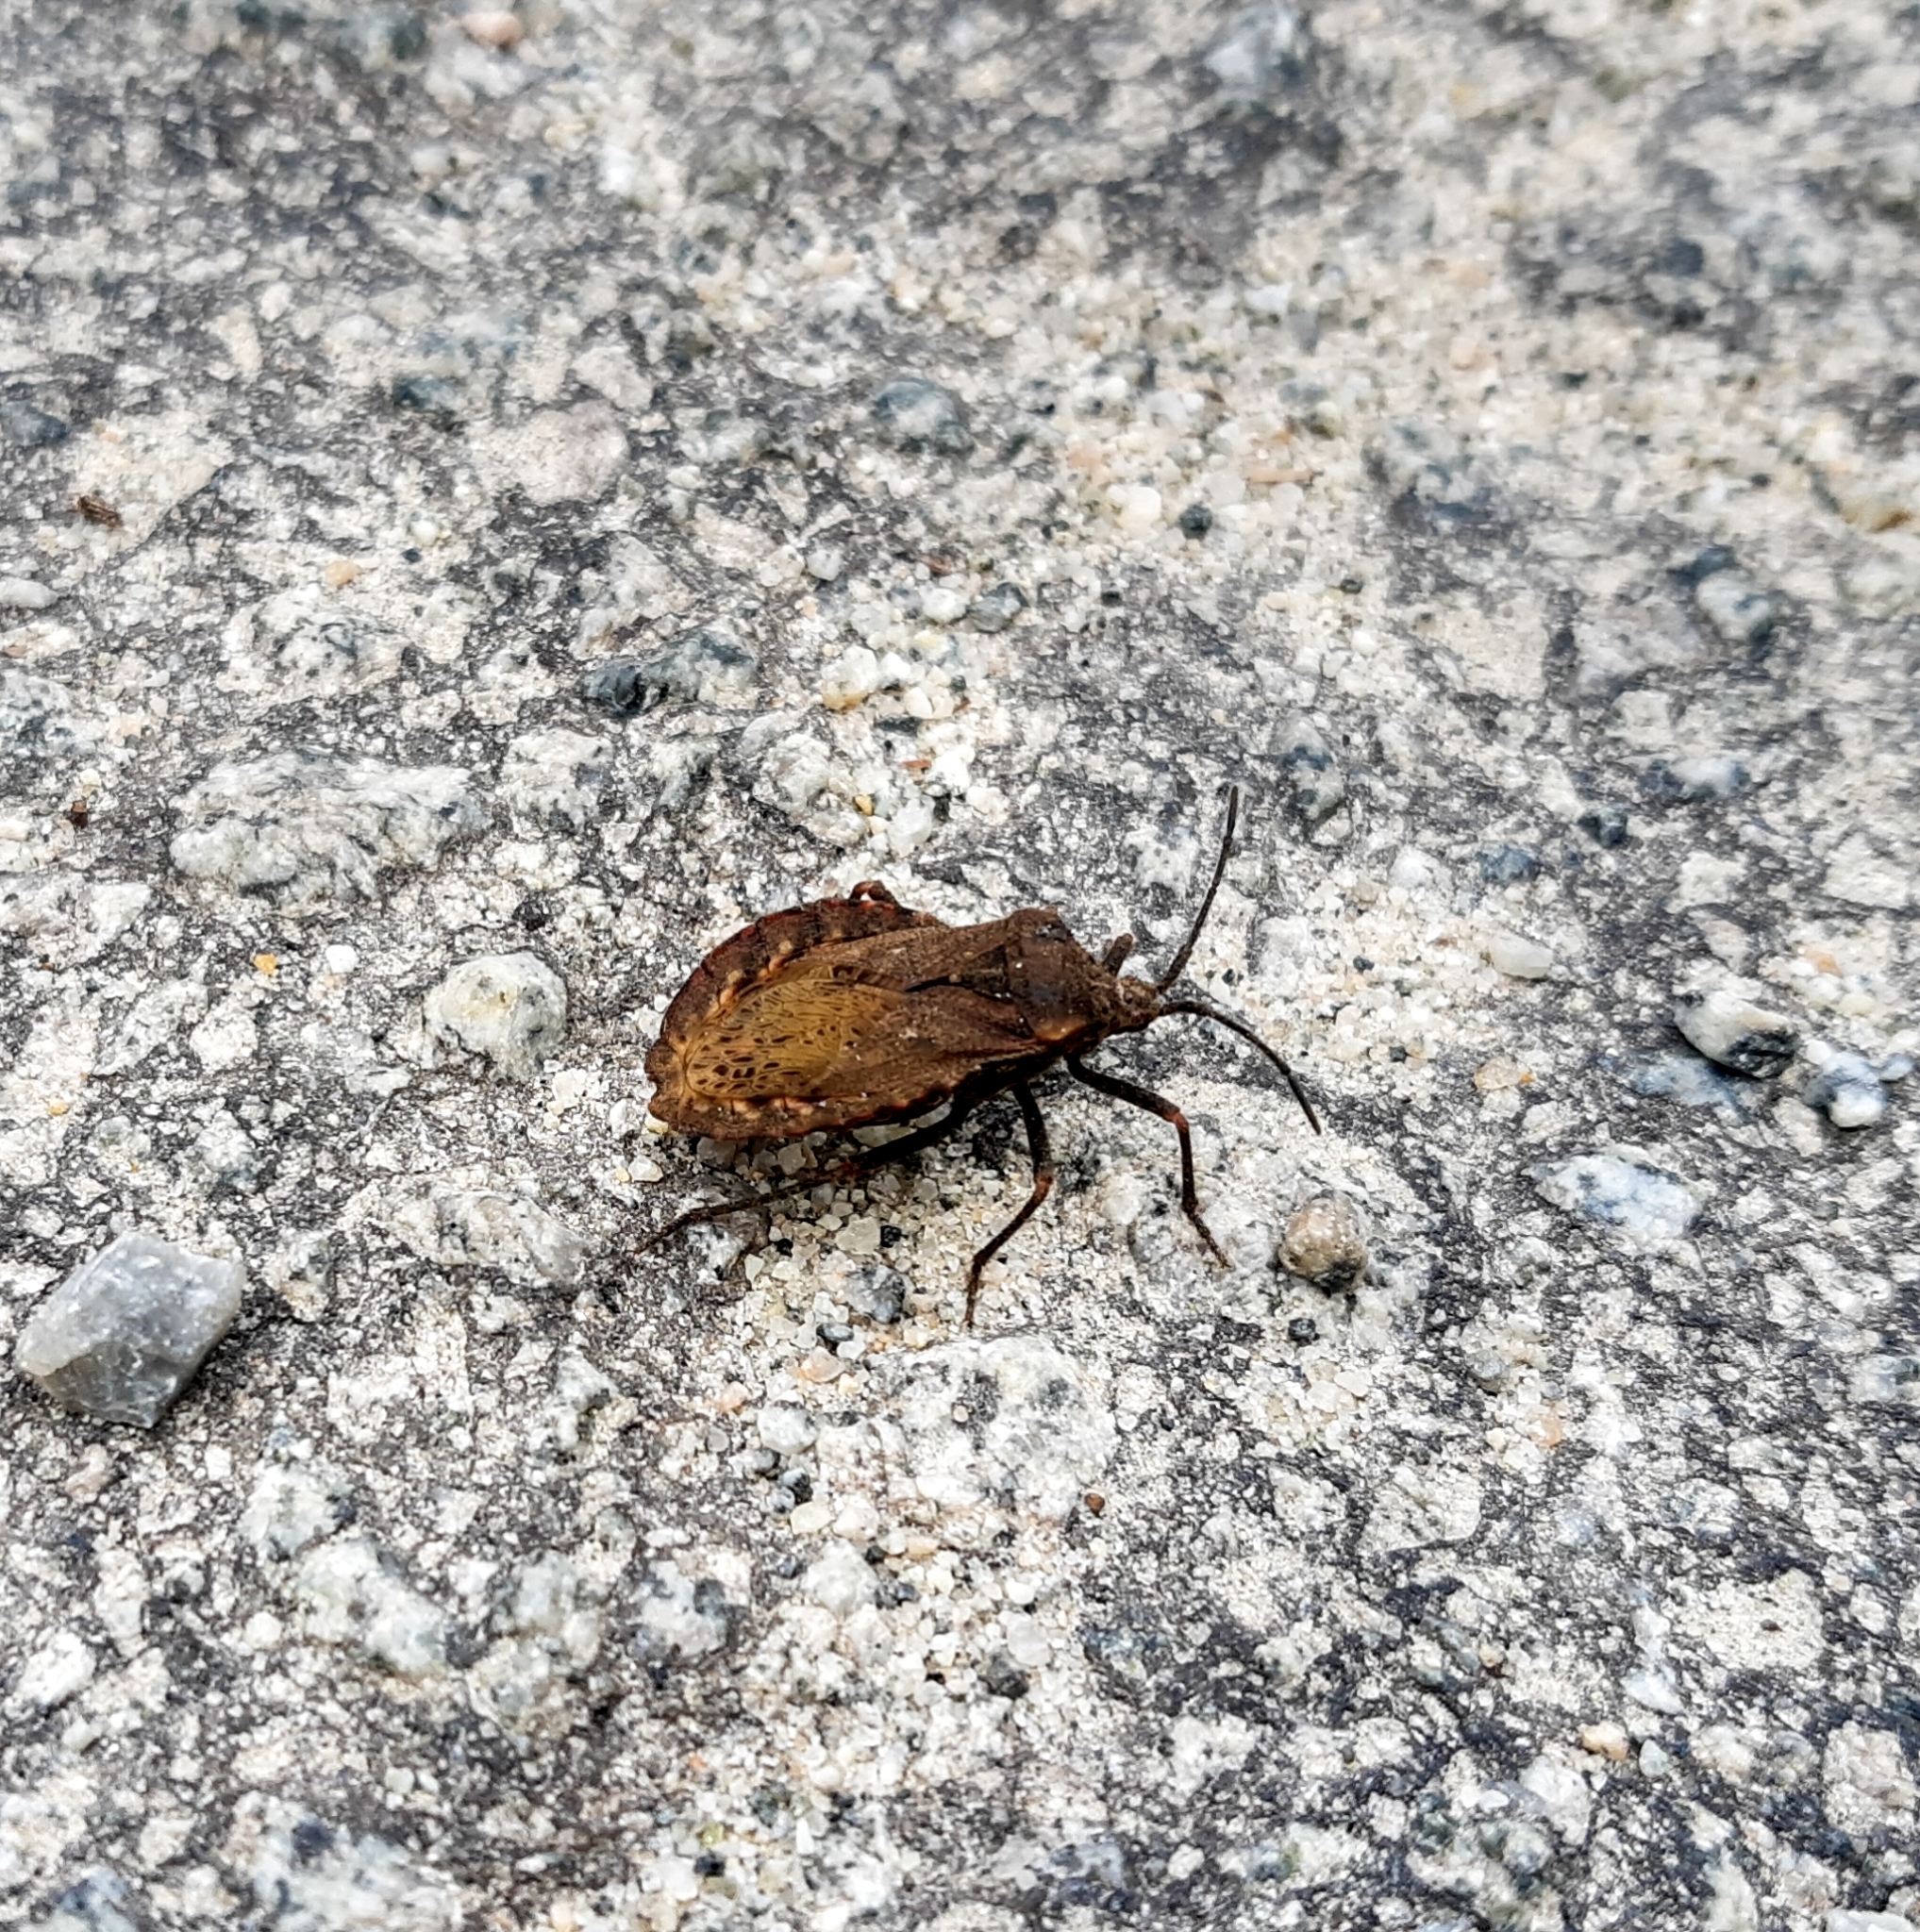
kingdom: Animalia
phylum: Arthropoda
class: Insecta
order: Hemiptera
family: Coreidae
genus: Spartocera
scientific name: Spartocera fusca
